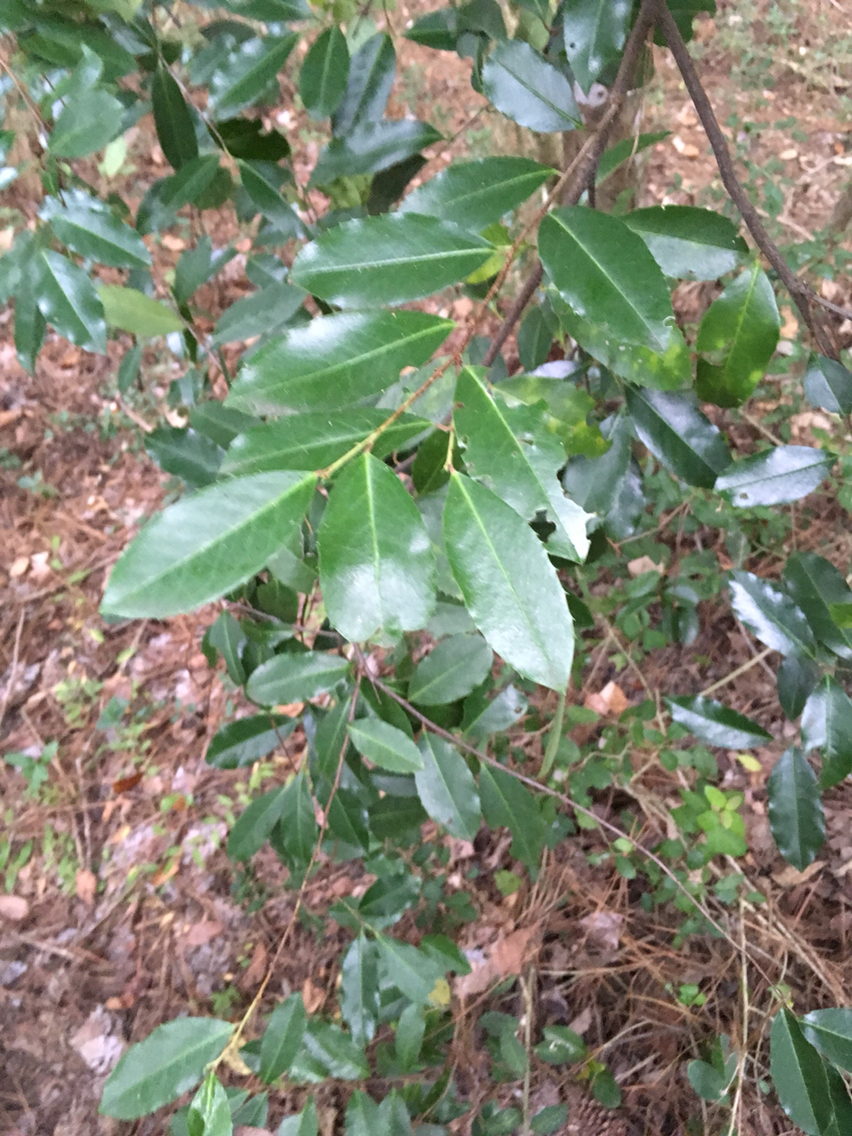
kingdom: Plantae
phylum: Tracheophyta
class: Magnoliopsida
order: Rosales
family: Rosaceae
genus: Prunus
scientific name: Prunus caroliniana
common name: Carolina laurel cherry
